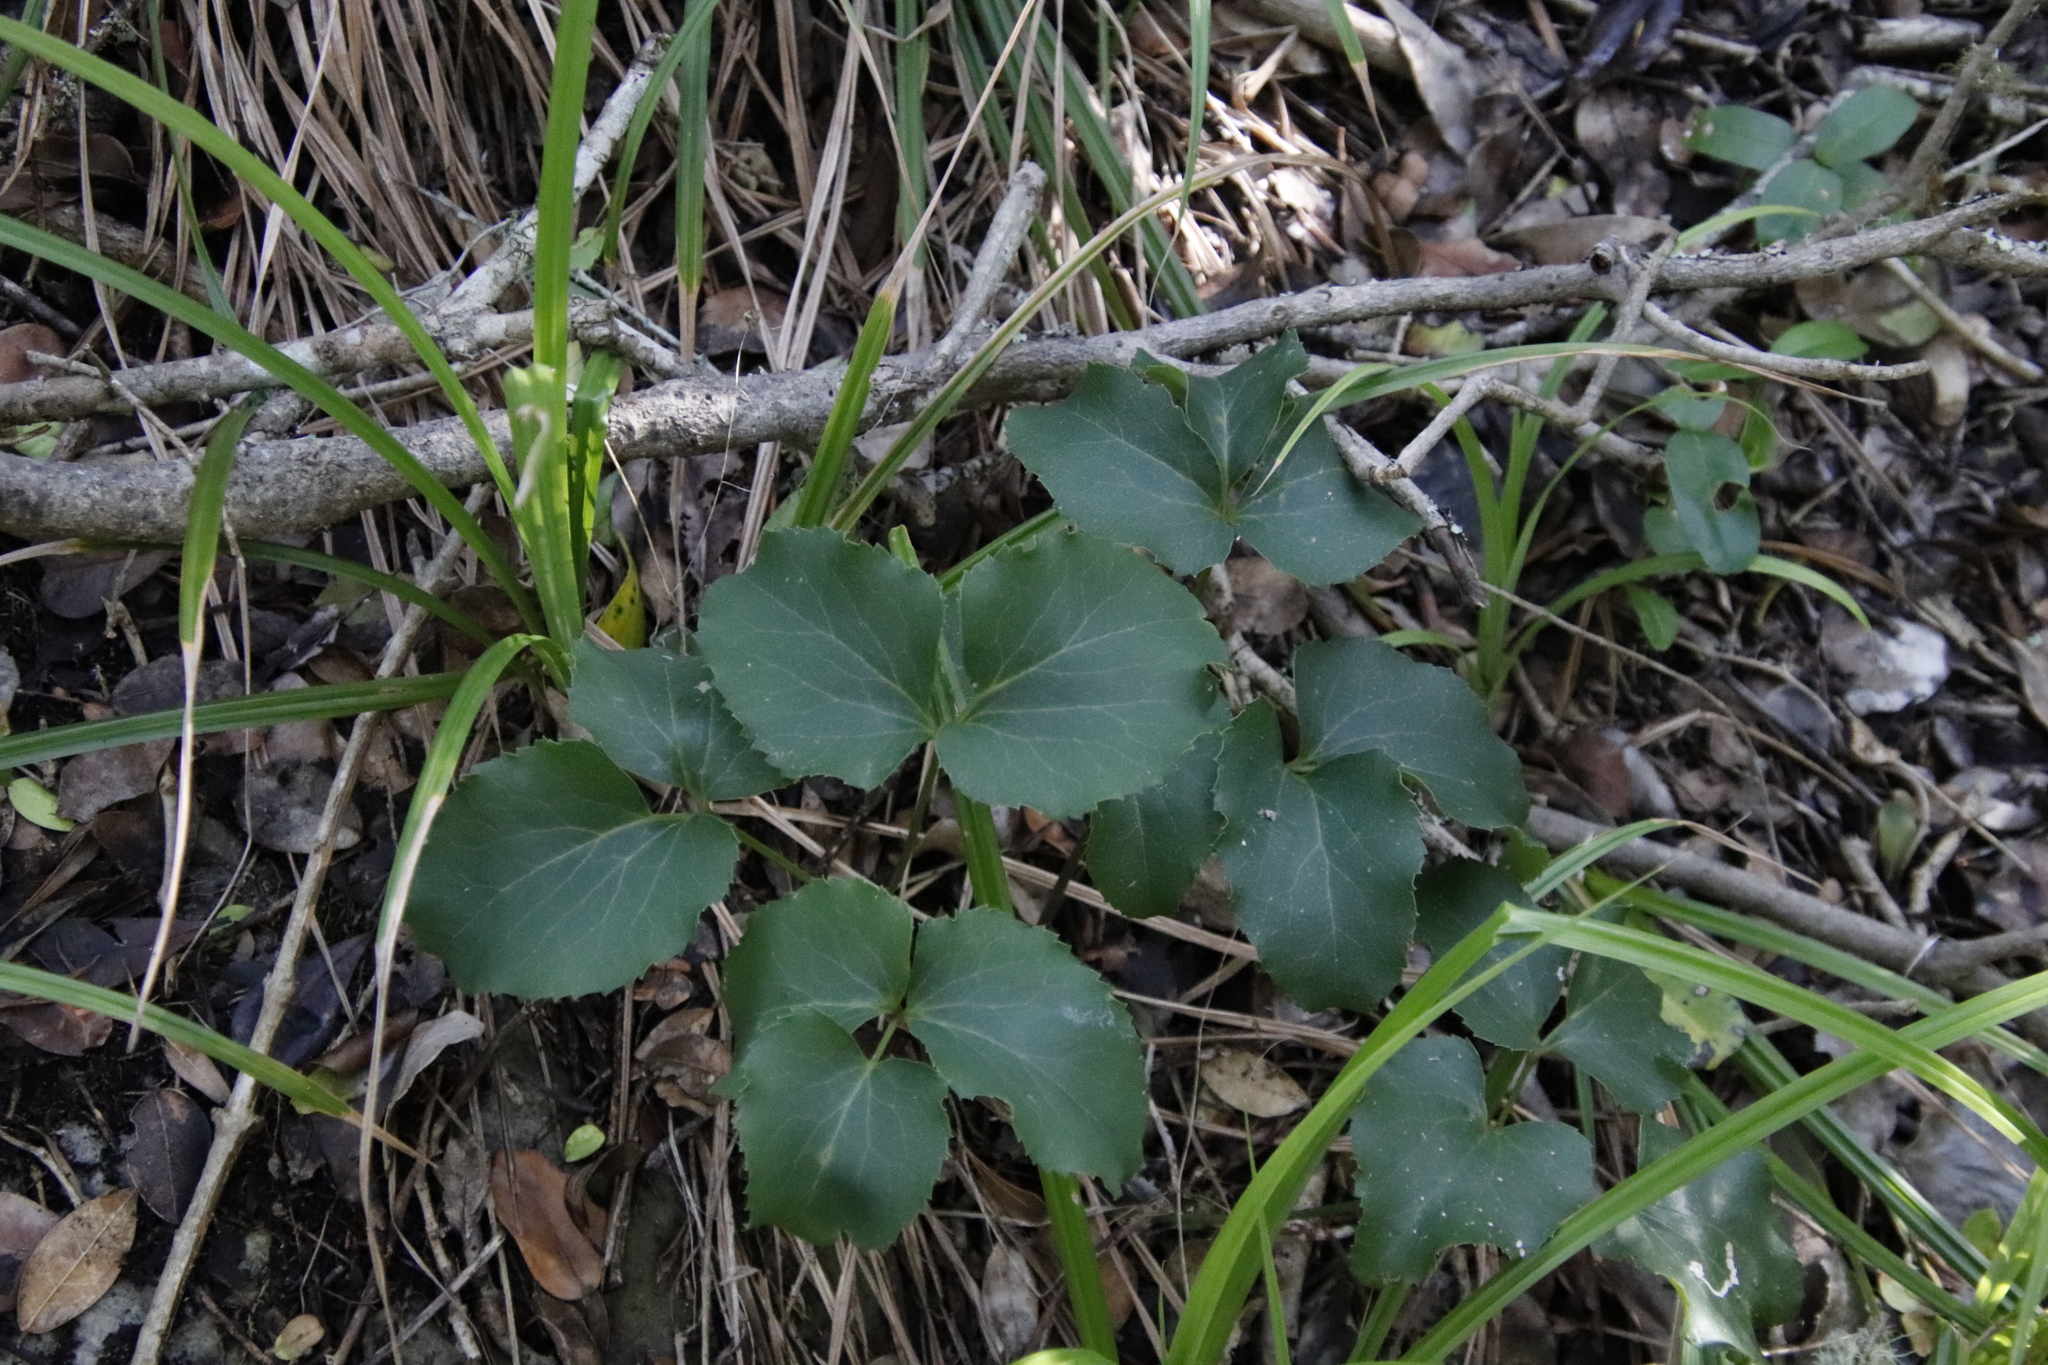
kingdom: Plantae
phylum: Tracheophyta
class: Magnoliopsida
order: Ranunculales
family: Ranunculaceae
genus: Knowltonia
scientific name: Knowltonia vesicatoria
